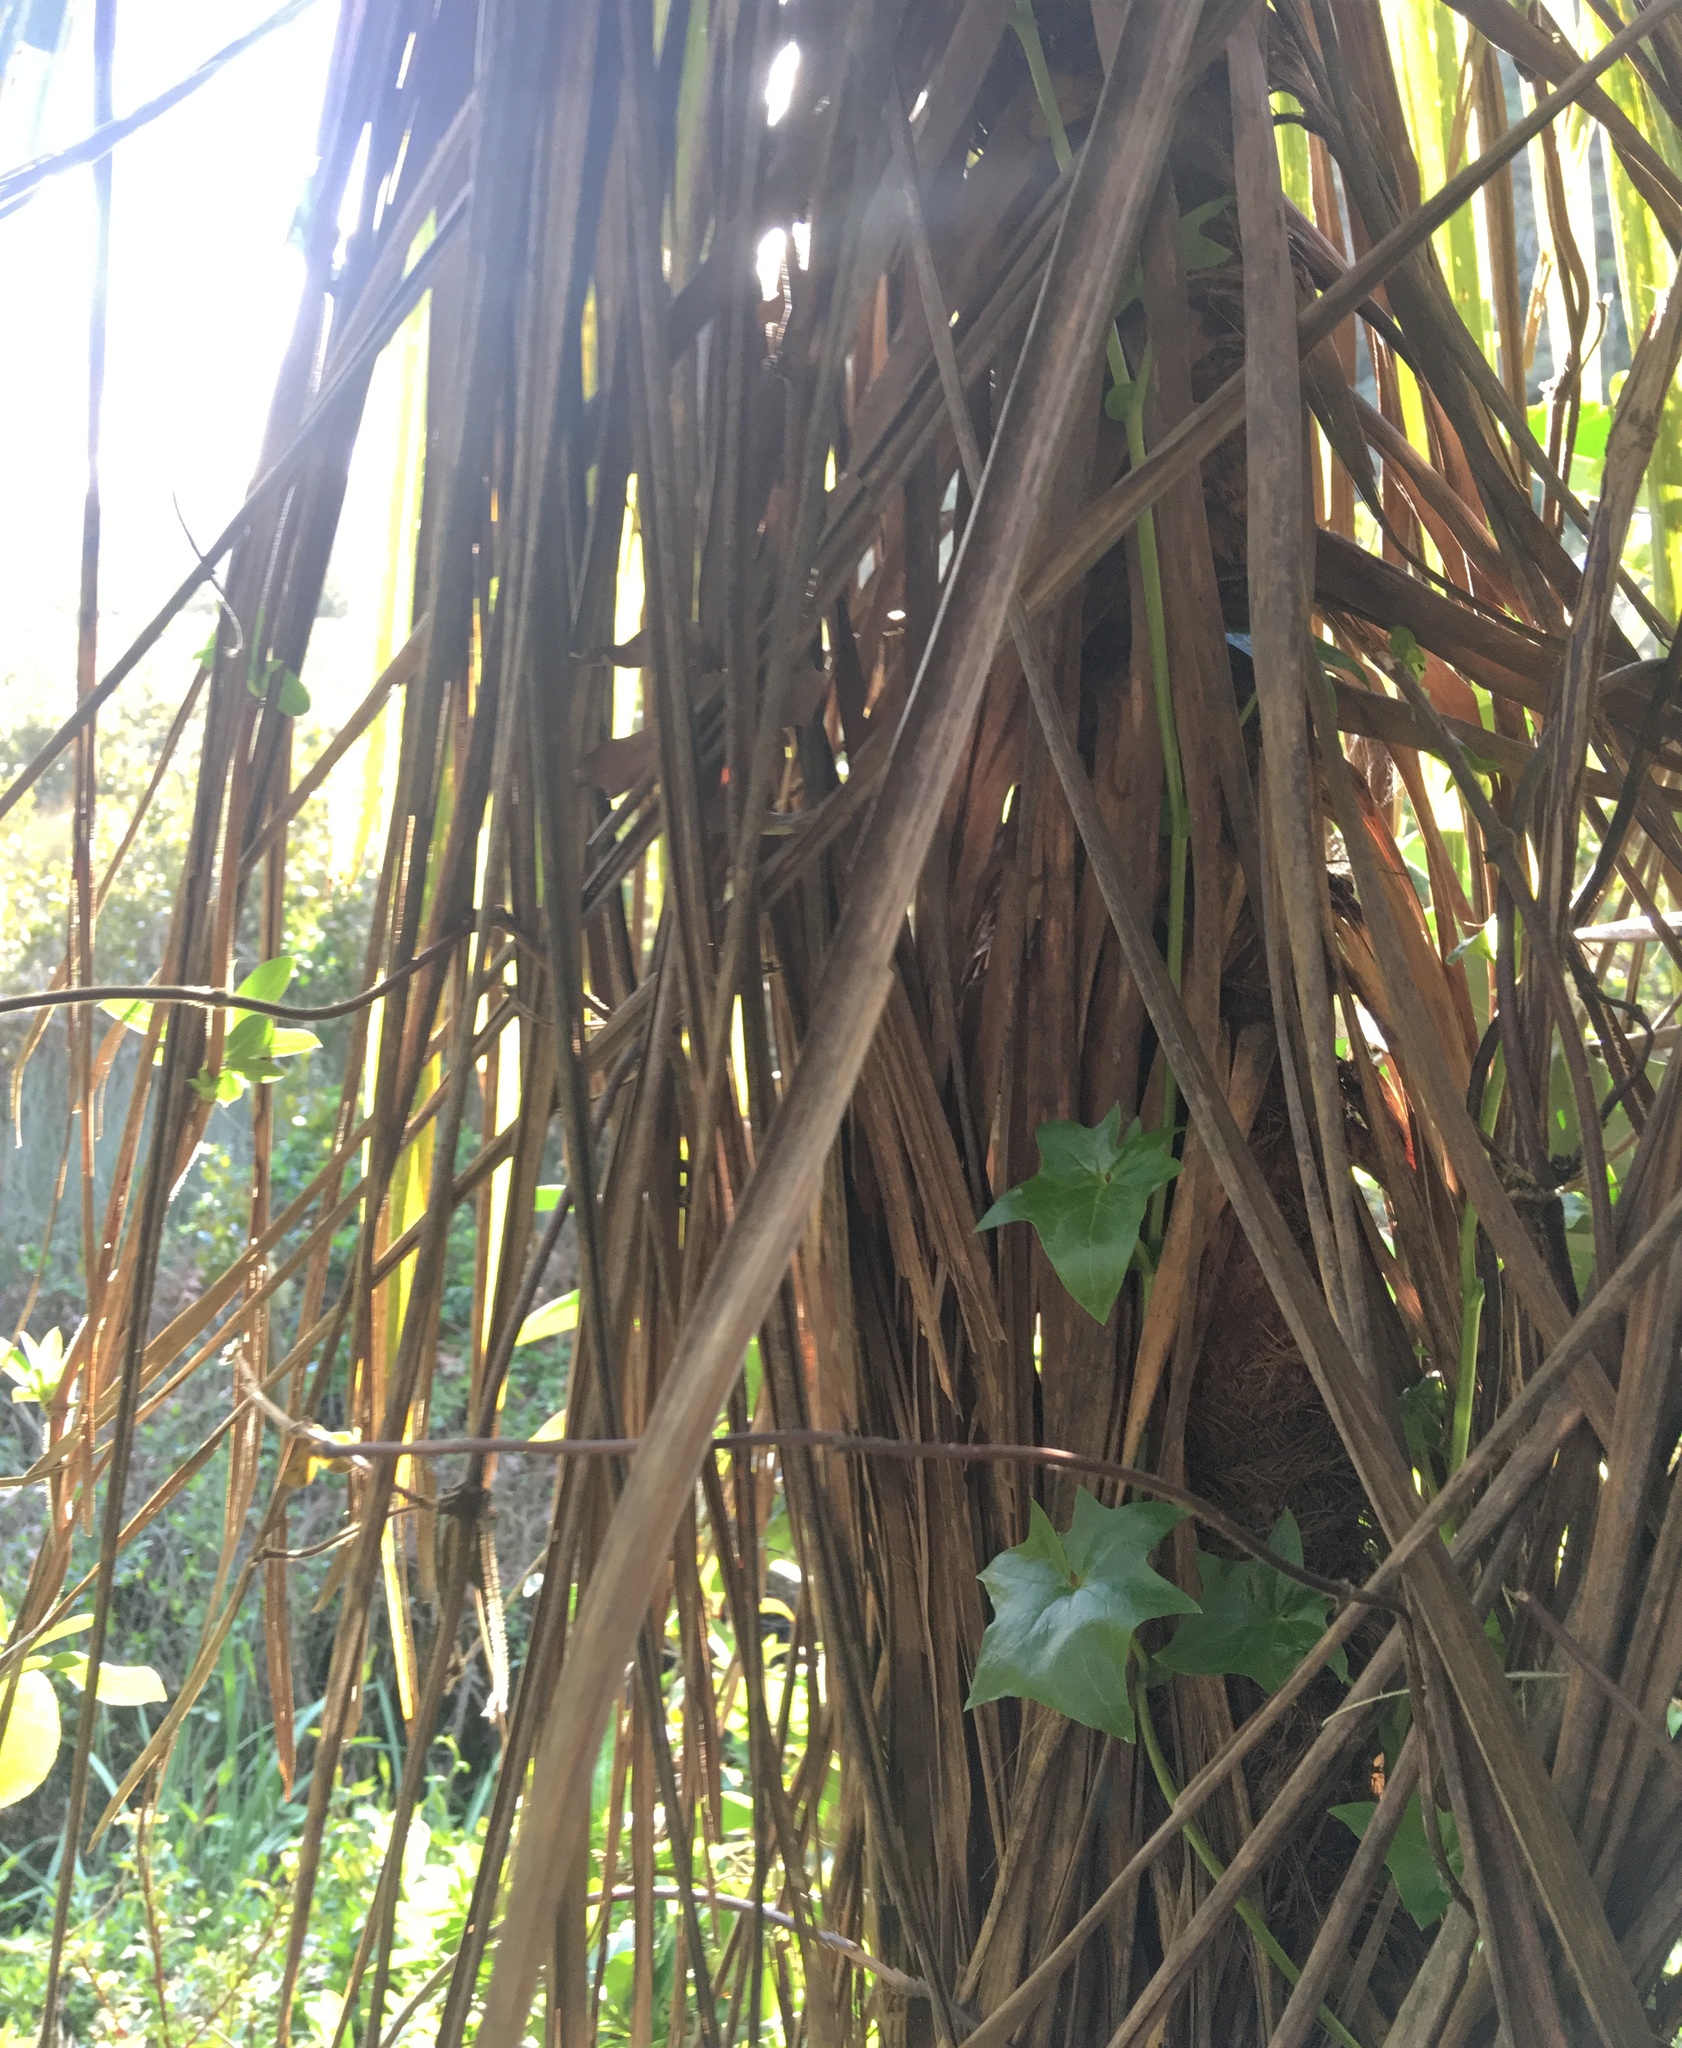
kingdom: Plantae
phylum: Tracheophyta
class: Liliopsida
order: Asparagales
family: Asparagaceae
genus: Cordyline
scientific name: Cordyline australis
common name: Cabbage-palm
